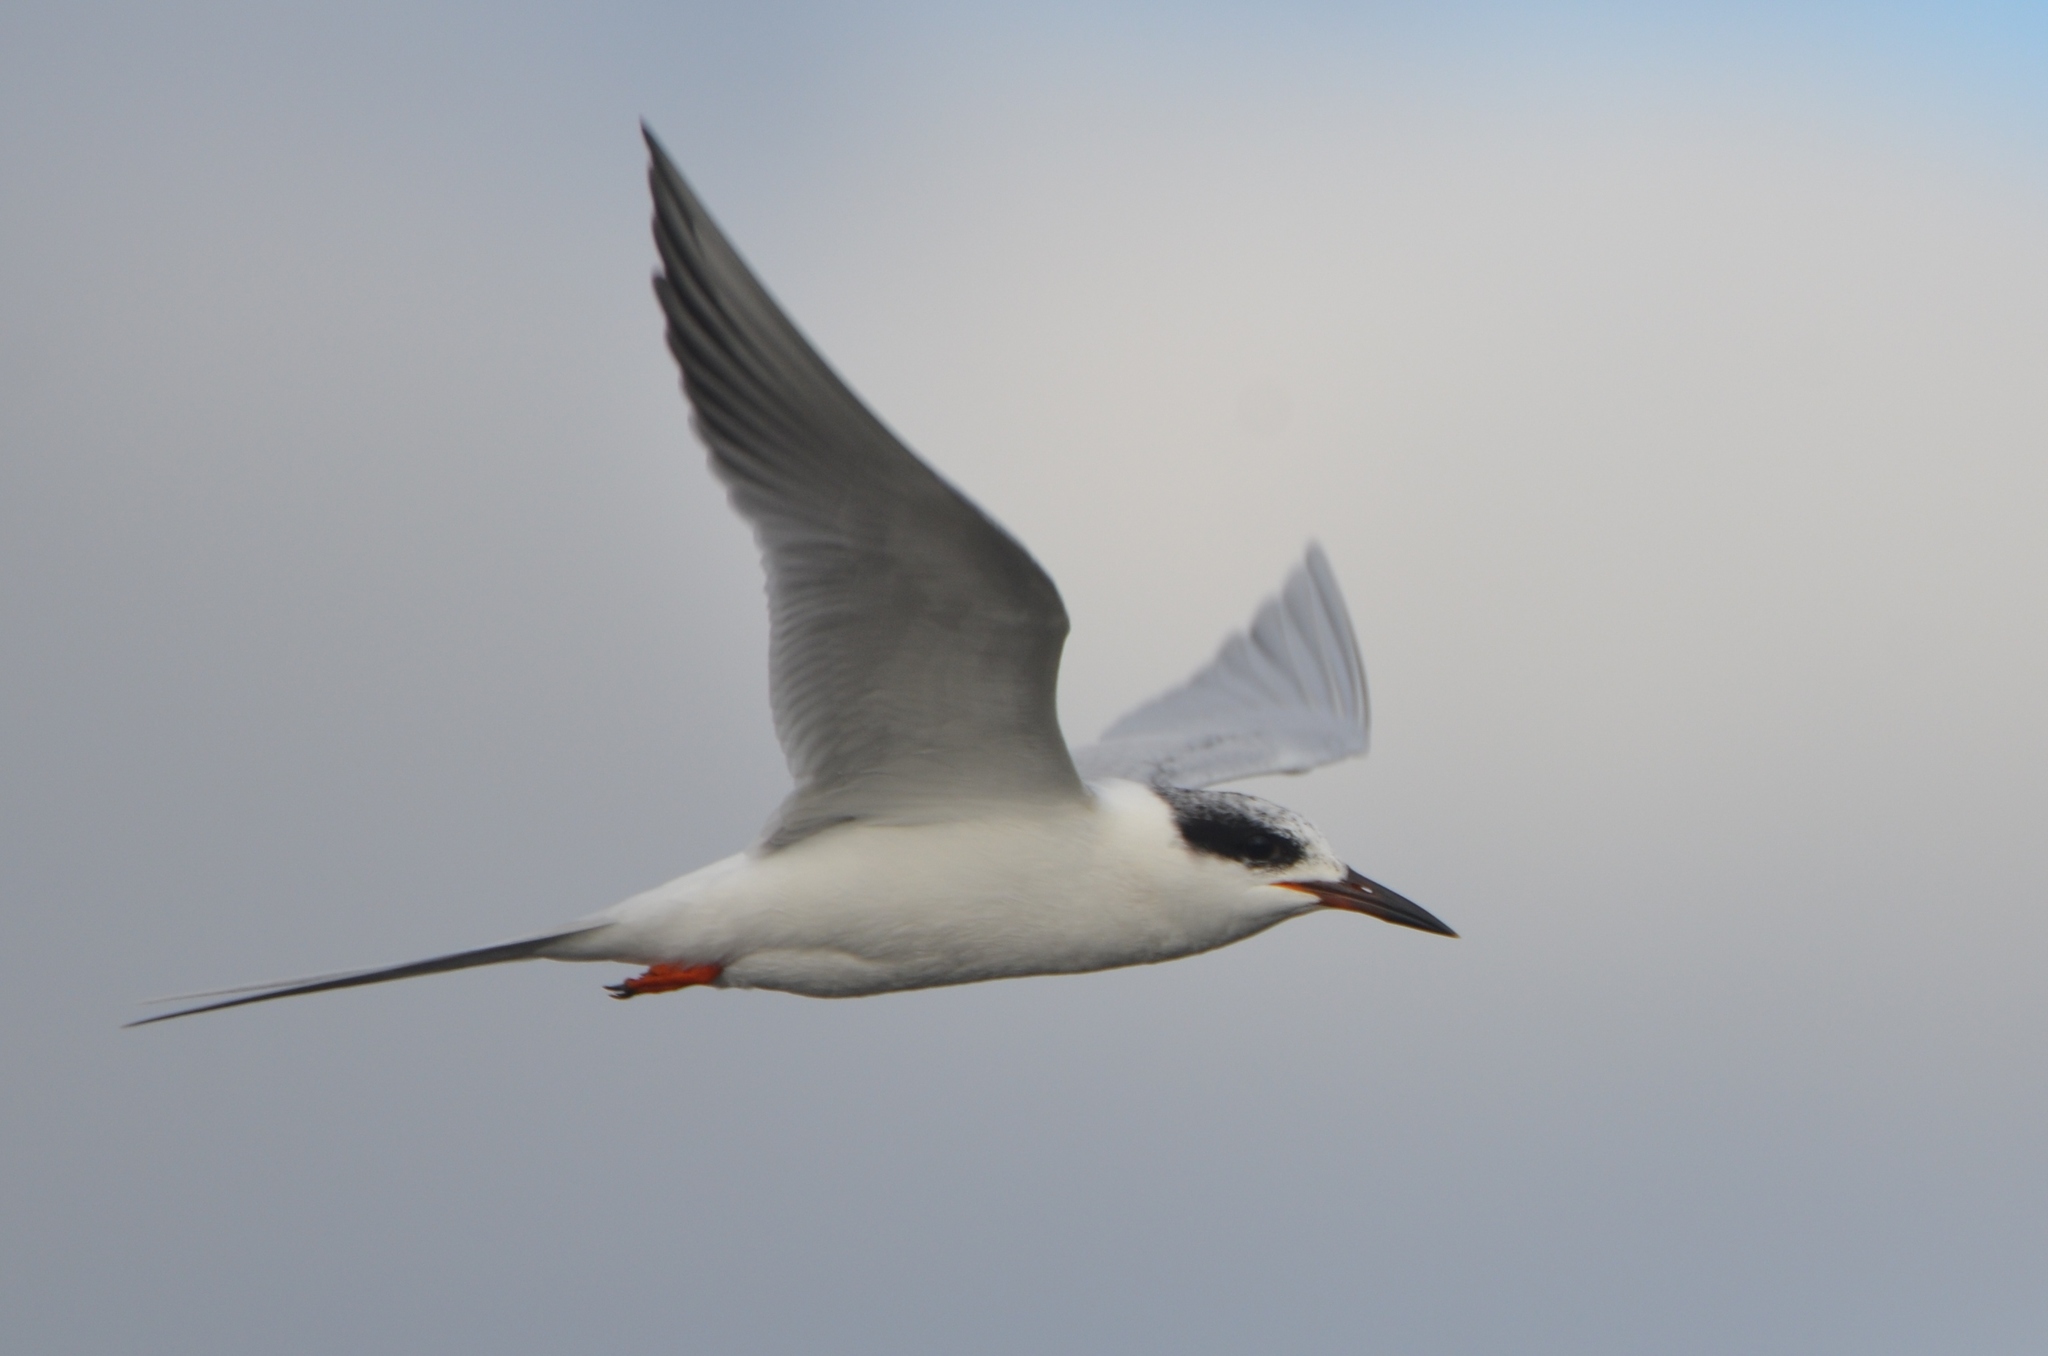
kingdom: Animalia
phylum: Chordata
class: Aves
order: Charadriiformes
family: Laridae
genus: Sterna
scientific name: Sterna forsteri
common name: Forster's tern
